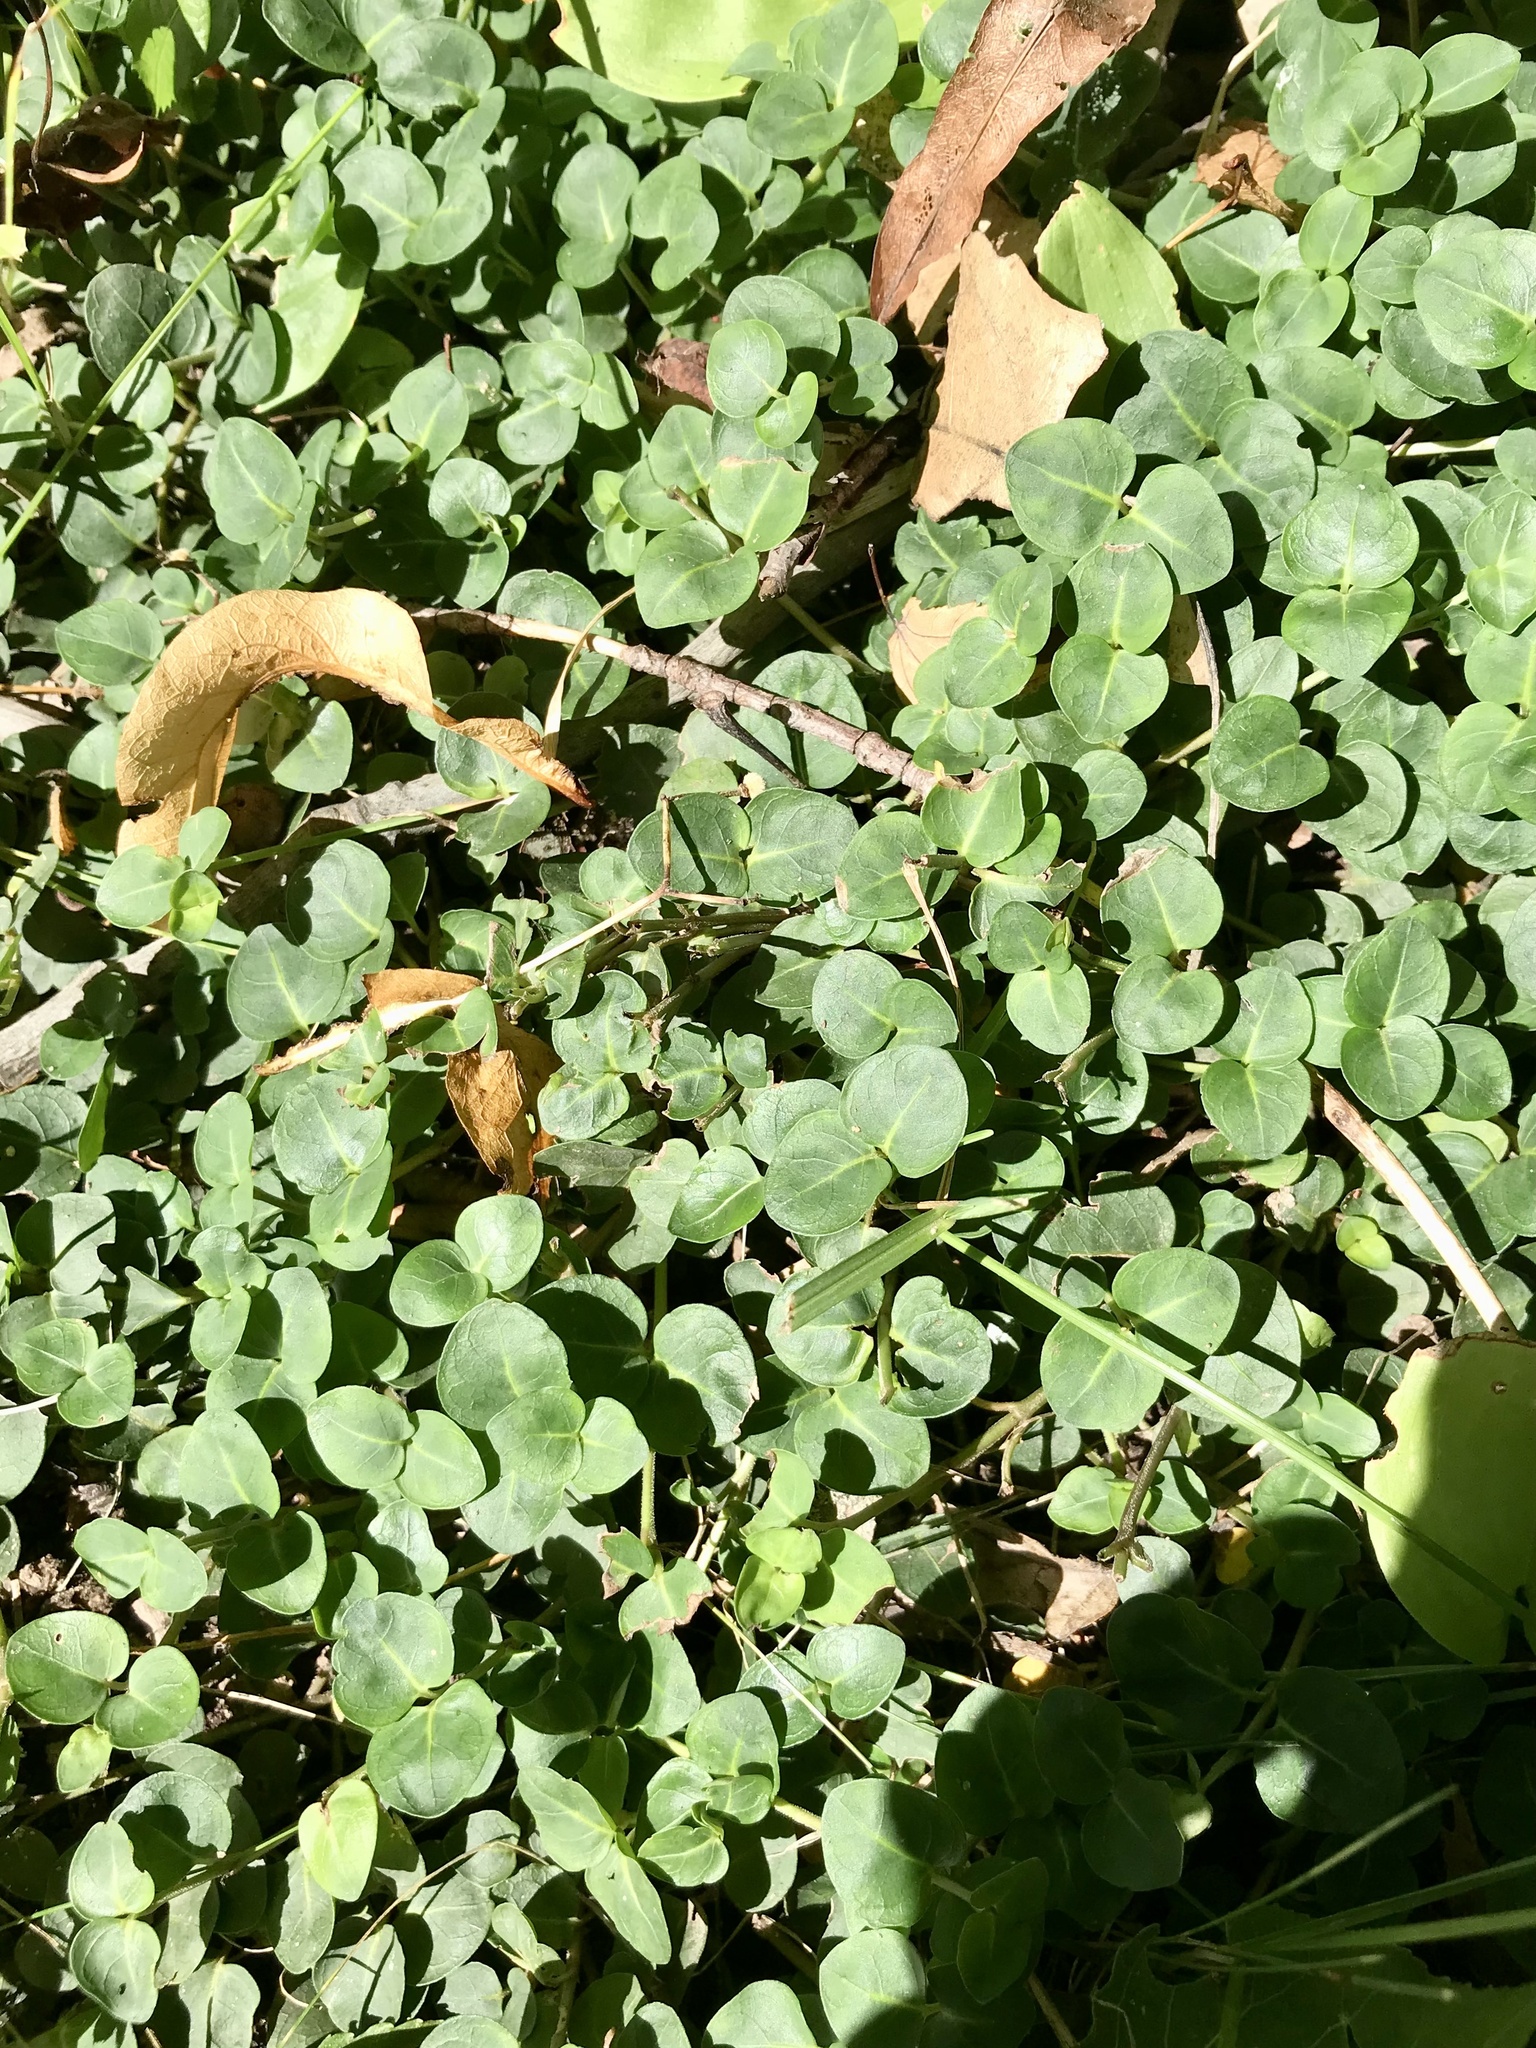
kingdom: Plantae
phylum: Tracheophyta
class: Magnoliopsida
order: Gentianales
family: Rubiaceae
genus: Mitchella
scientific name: Mitchella repens
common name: Partridge-berry
